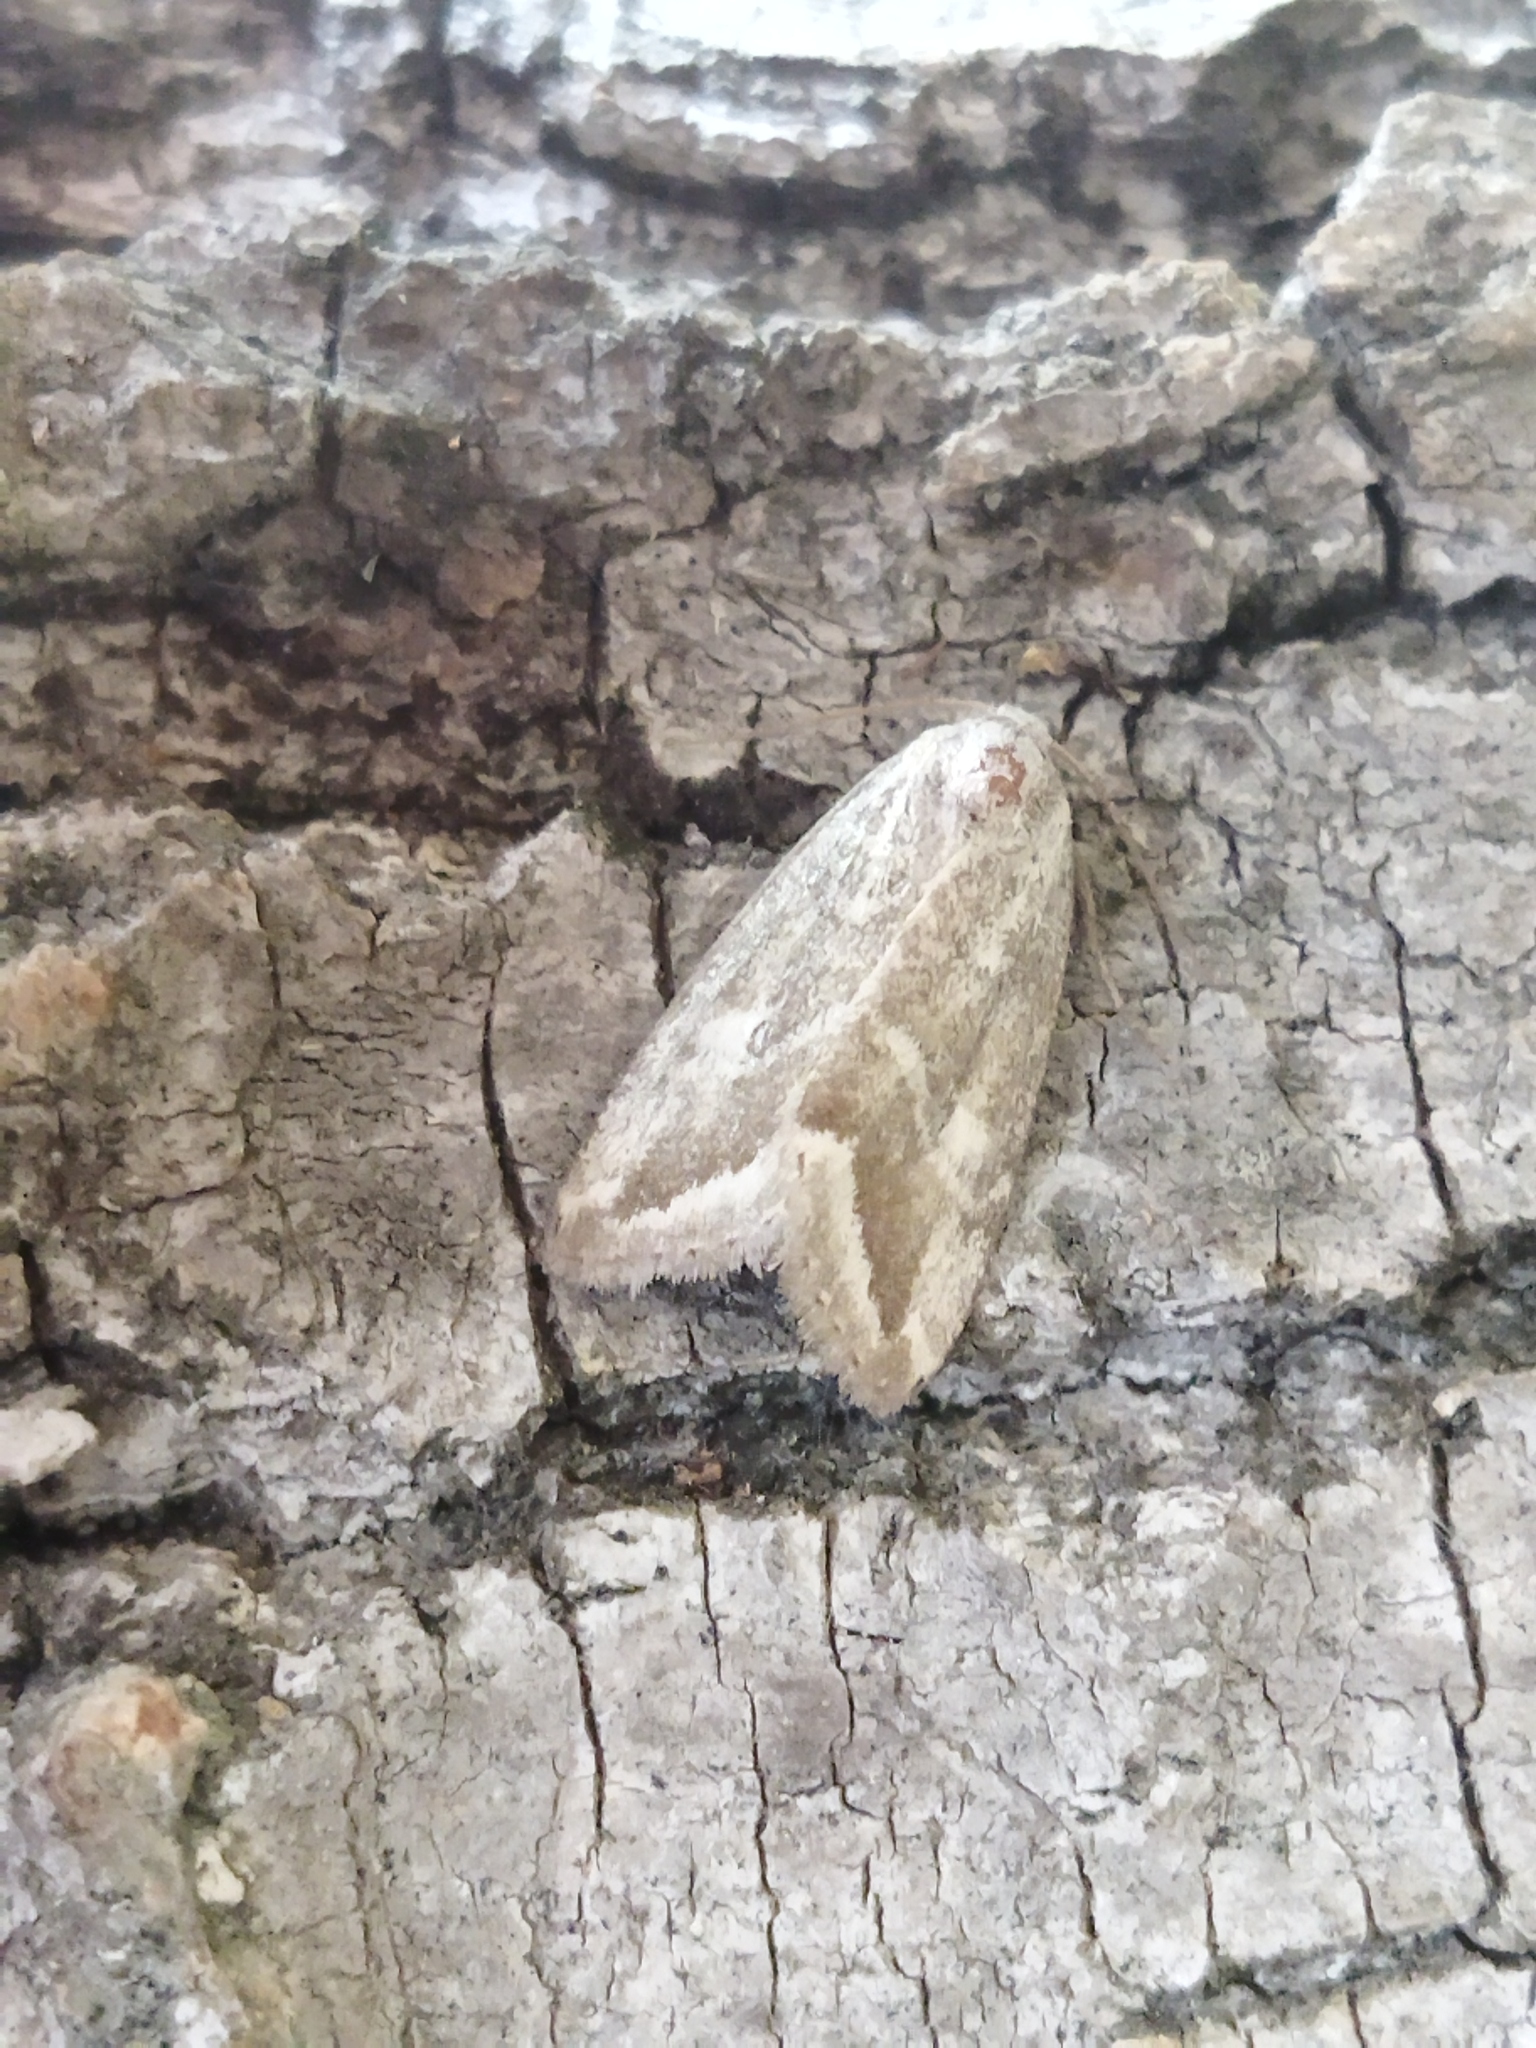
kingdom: Animalia
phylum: Arthropoda
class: Insecta
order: Lepidoptera
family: Noctuidae
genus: Phyllophila
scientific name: Phyllophila obliterata
